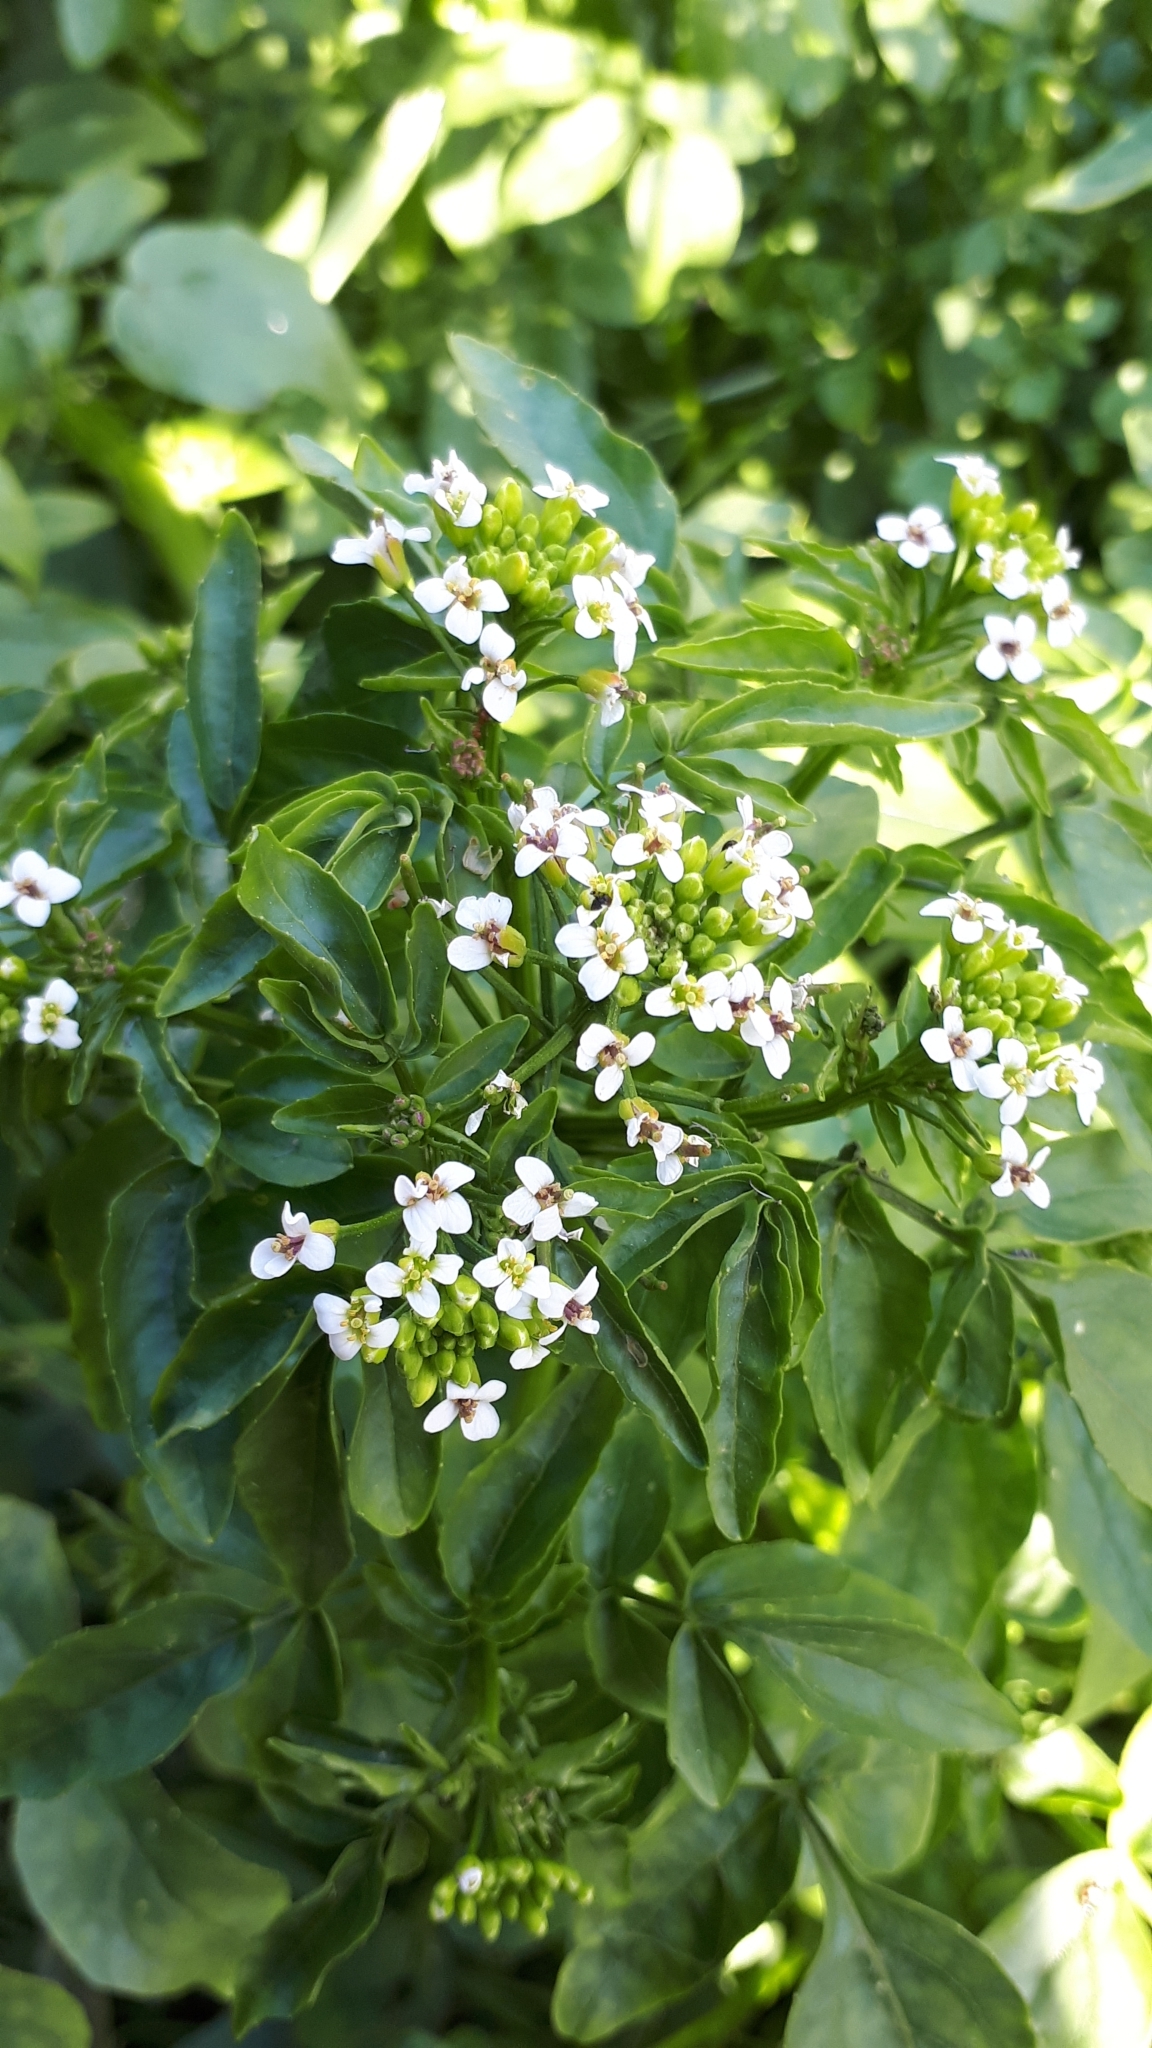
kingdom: Plantae
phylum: Tracheophyta
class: Magnoliopsida
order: Brassicales
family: Brassicaceae
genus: Nasturtium
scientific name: Nasturtium officinale
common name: Watercress
